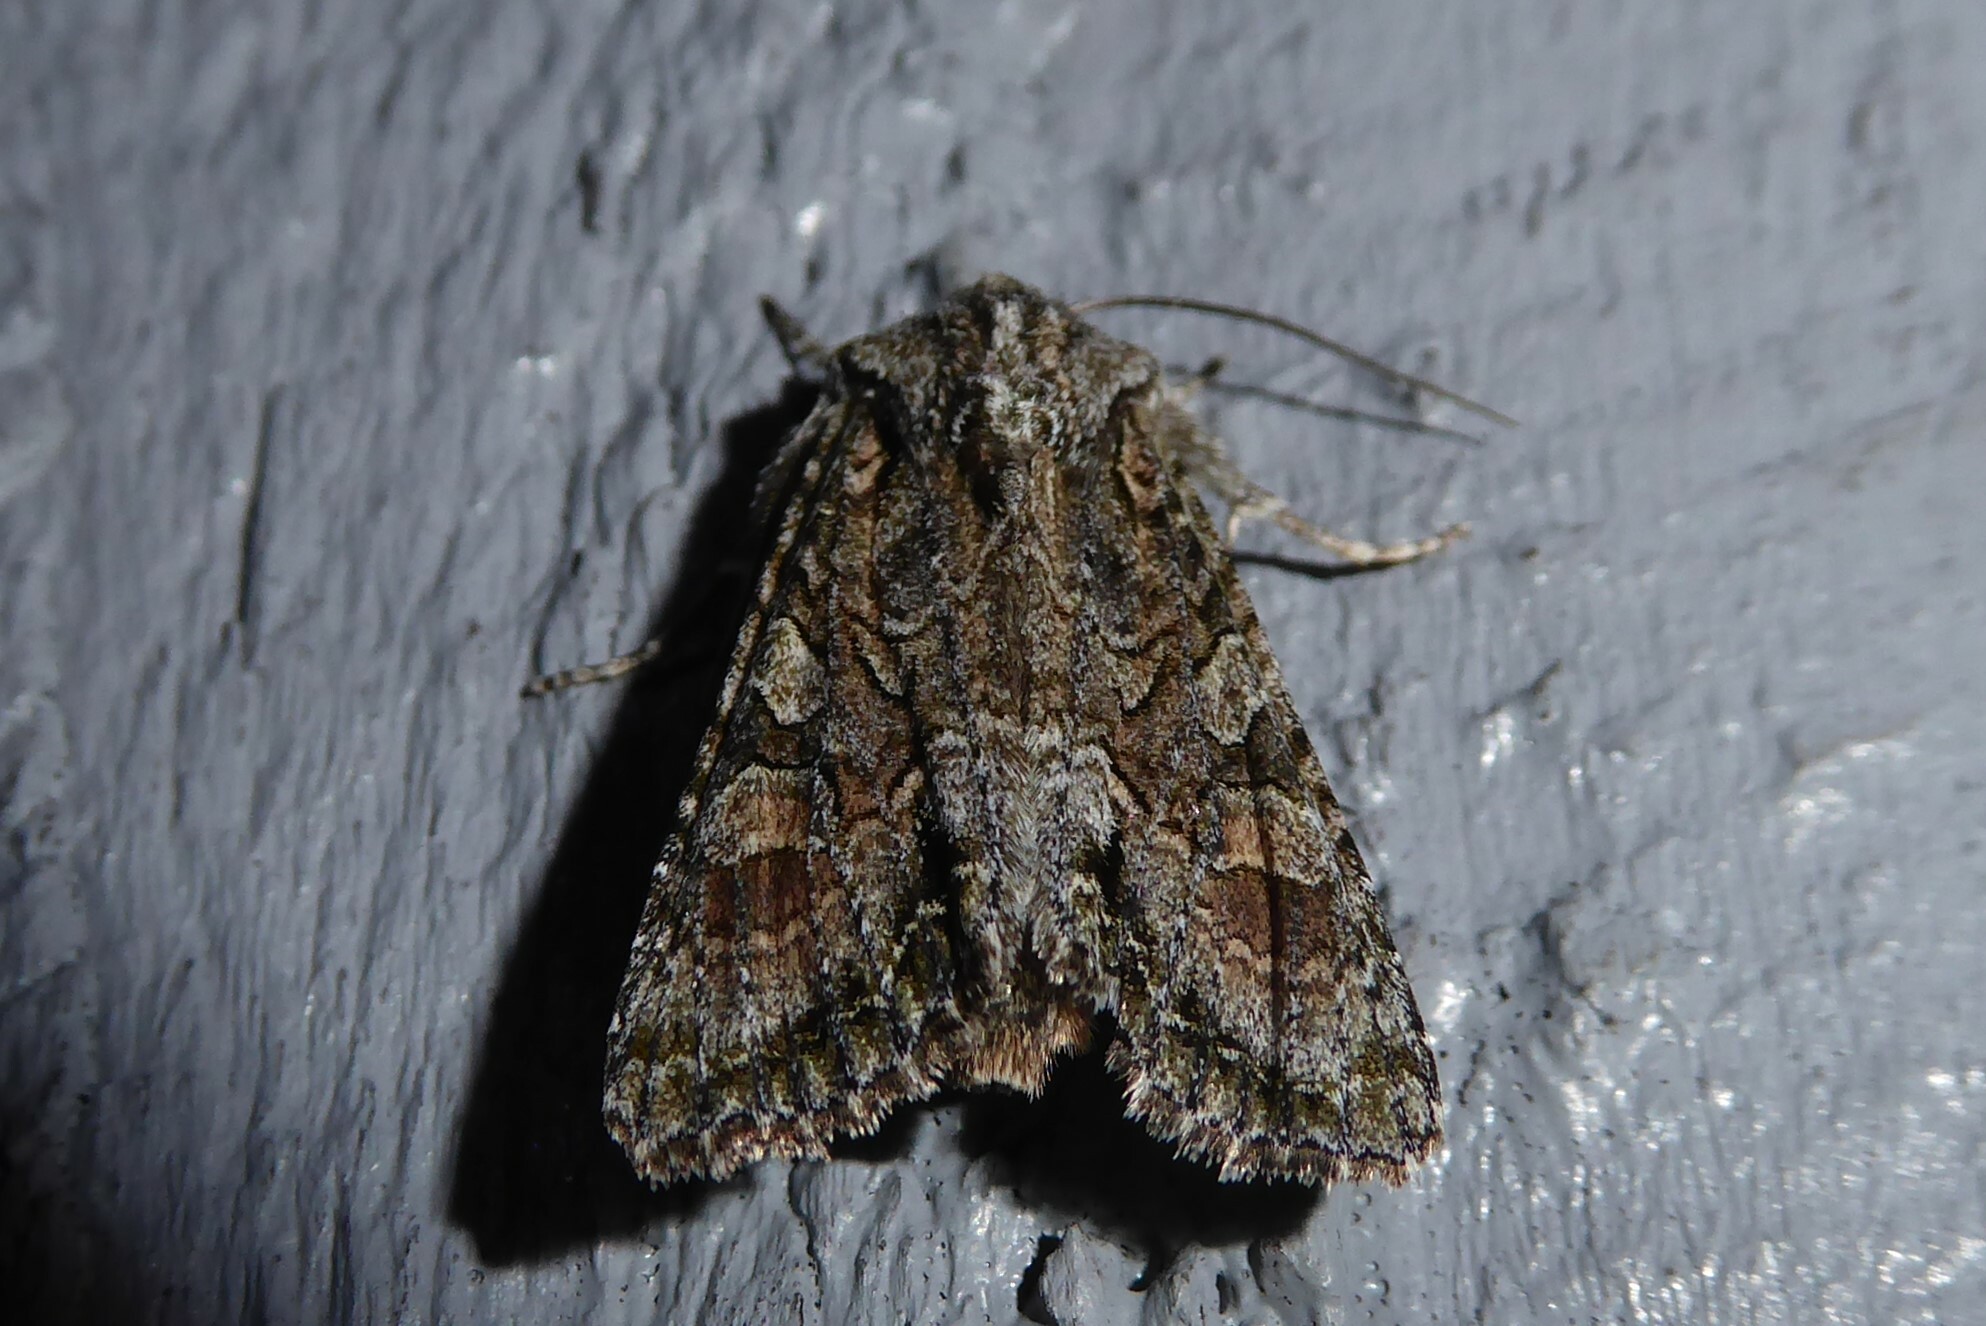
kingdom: Animalia
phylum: Arthropoda
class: Insecta
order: Lepidoptera
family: Noctuidae
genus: Ichneutica
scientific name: Ichneutica mutans
